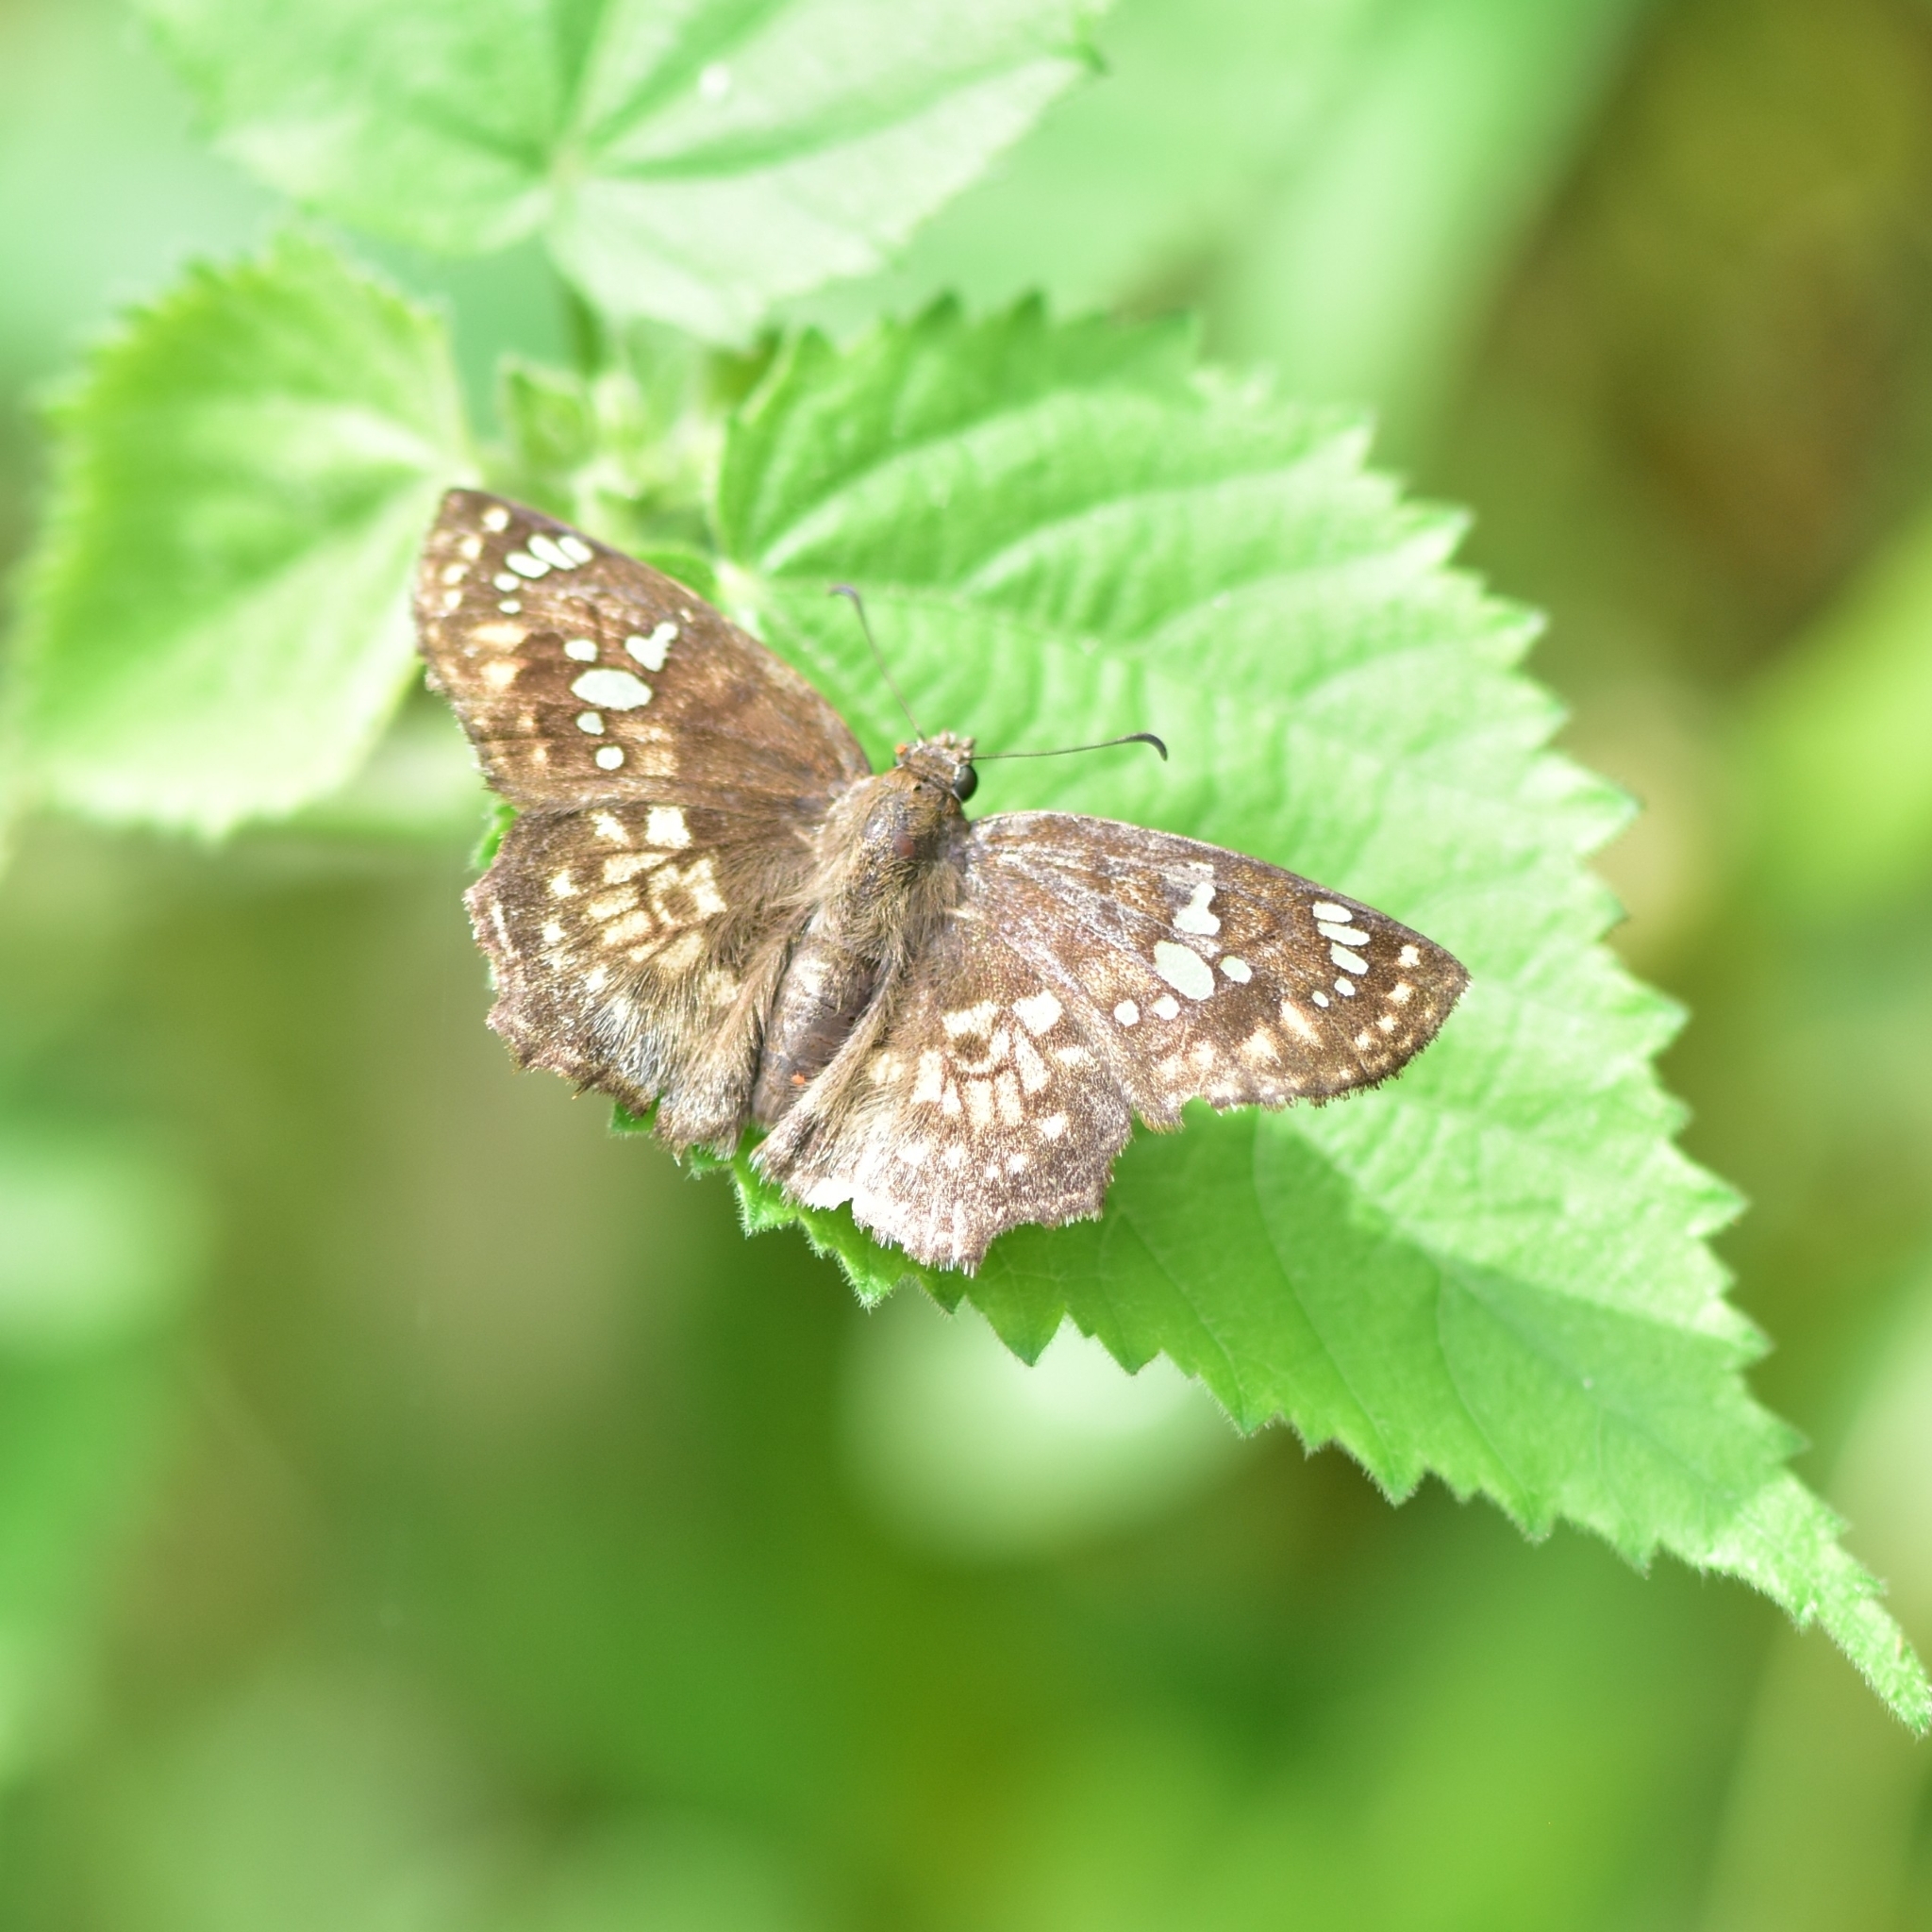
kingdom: Animalia
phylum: Arthropoda
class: Insecta
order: Lepidoptera
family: Hesperiidae
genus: Caprona
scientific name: Caprona ransonnettii
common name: Golden angle
